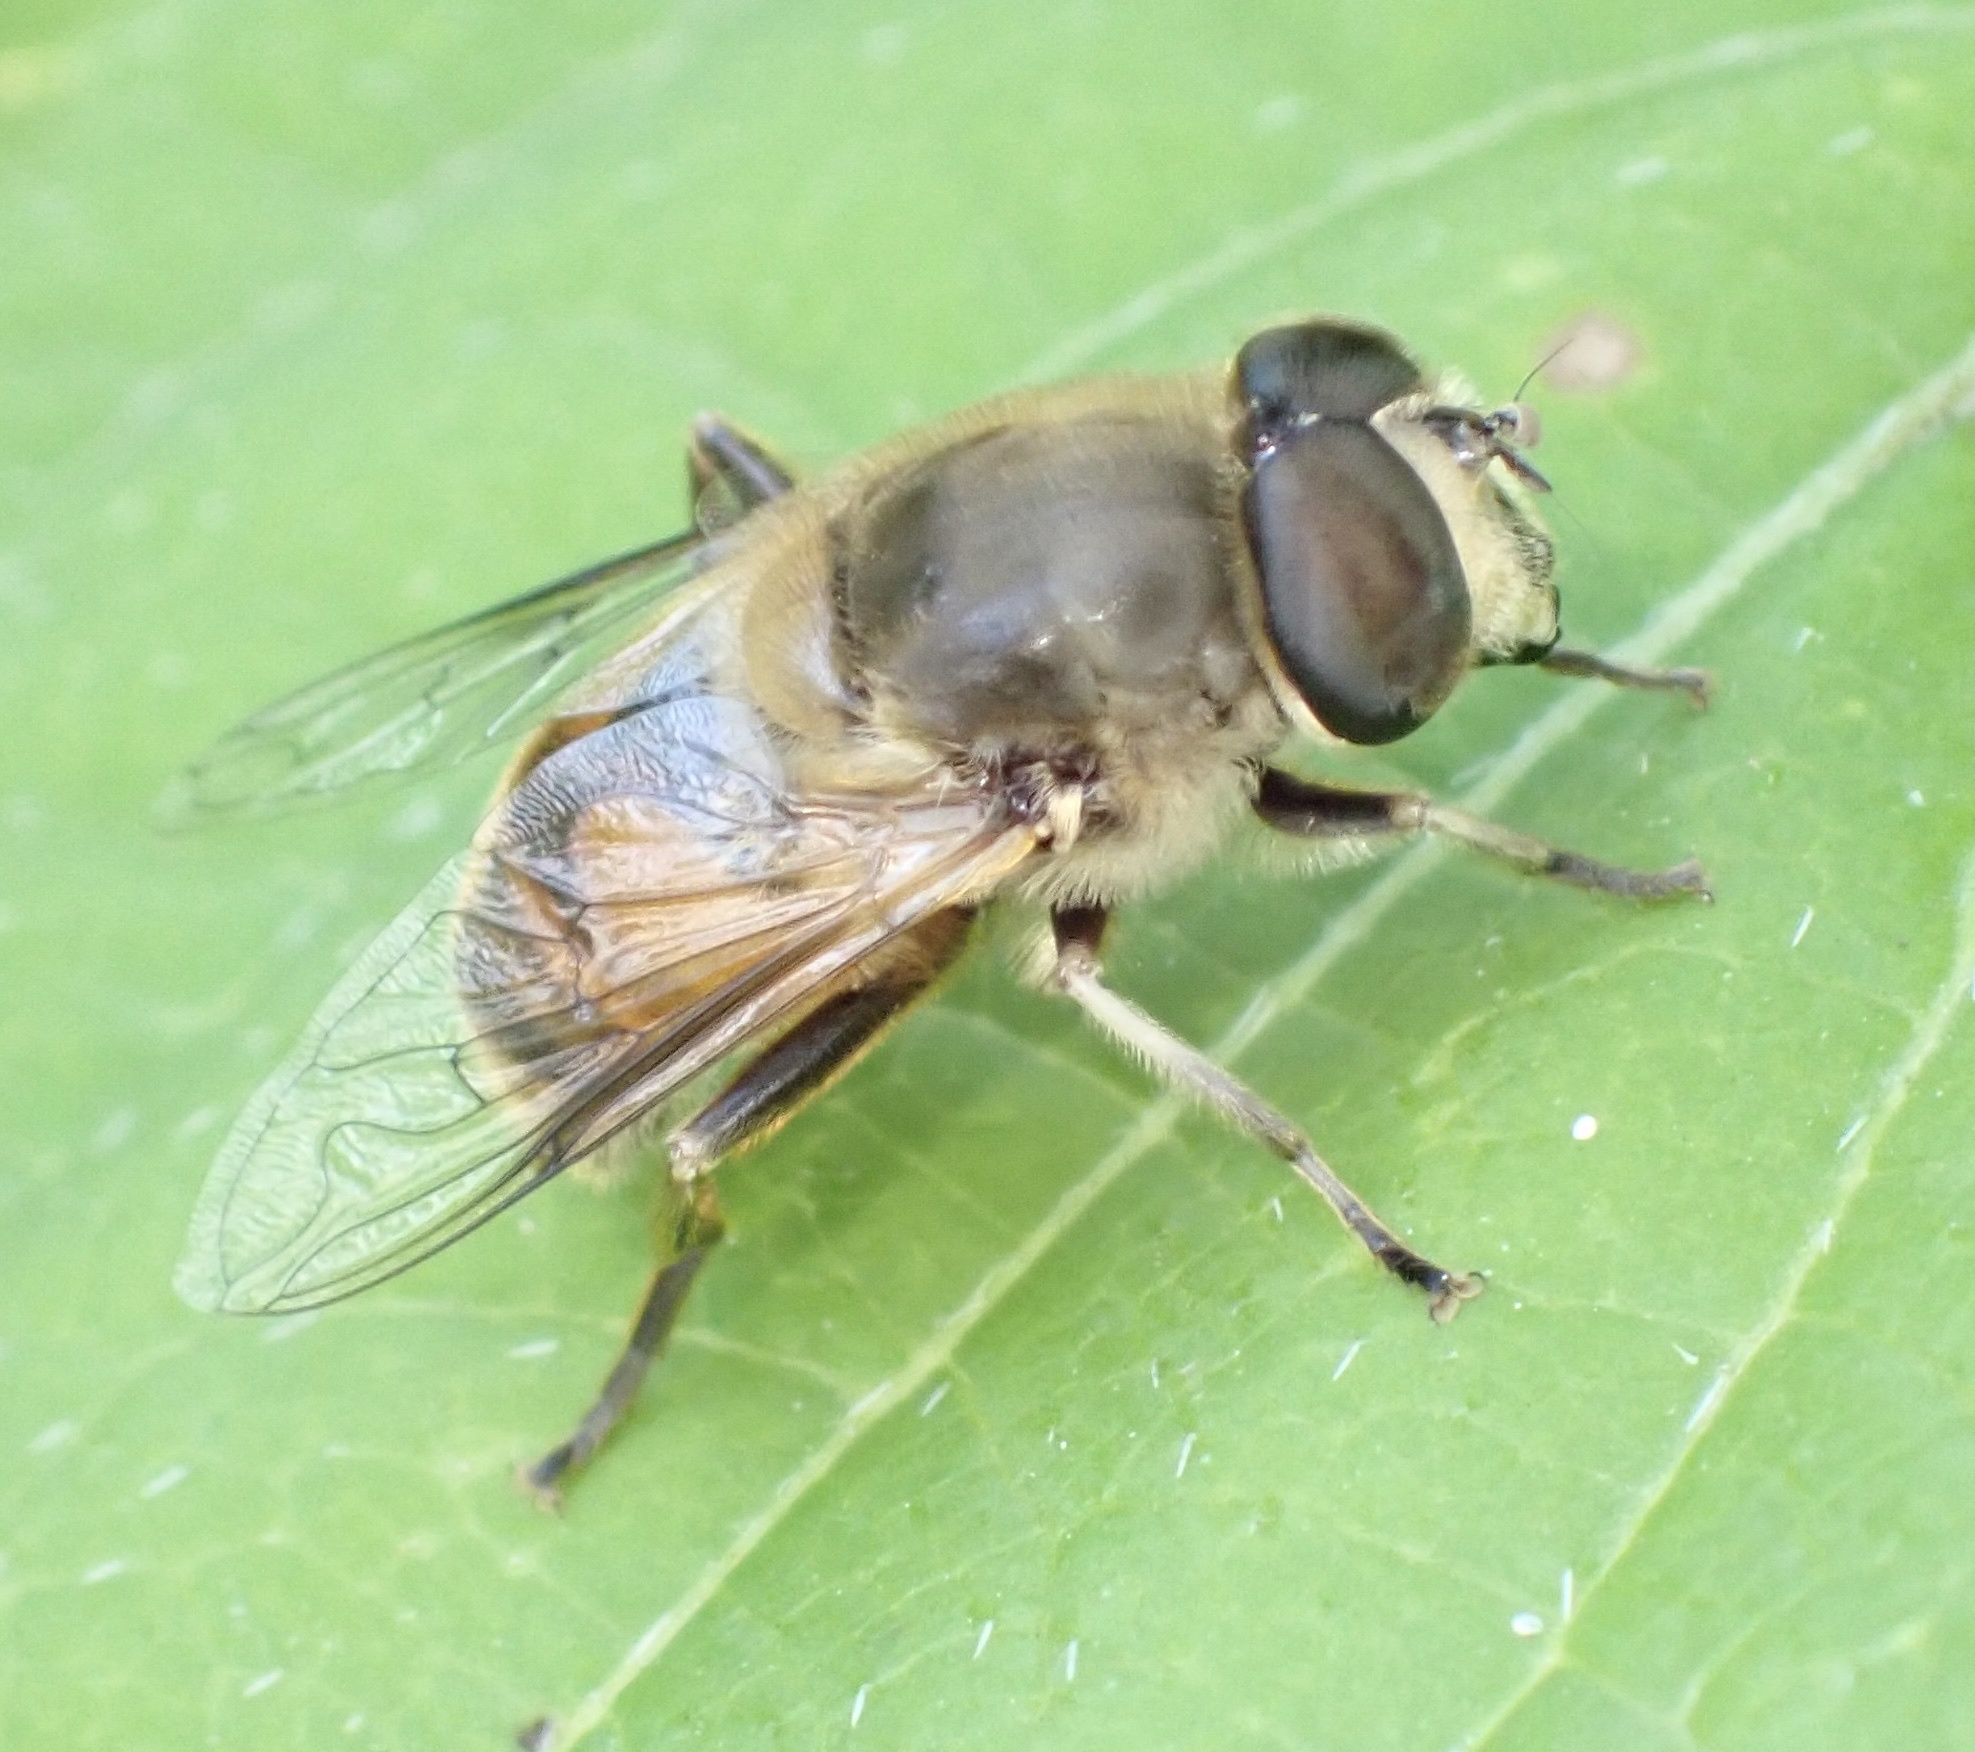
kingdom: Animalia
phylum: Arthropoda
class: Insecta
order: Diptera
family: Syrphidae
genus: Eristalis
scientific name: Eristalis tenax
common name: Drone fly
